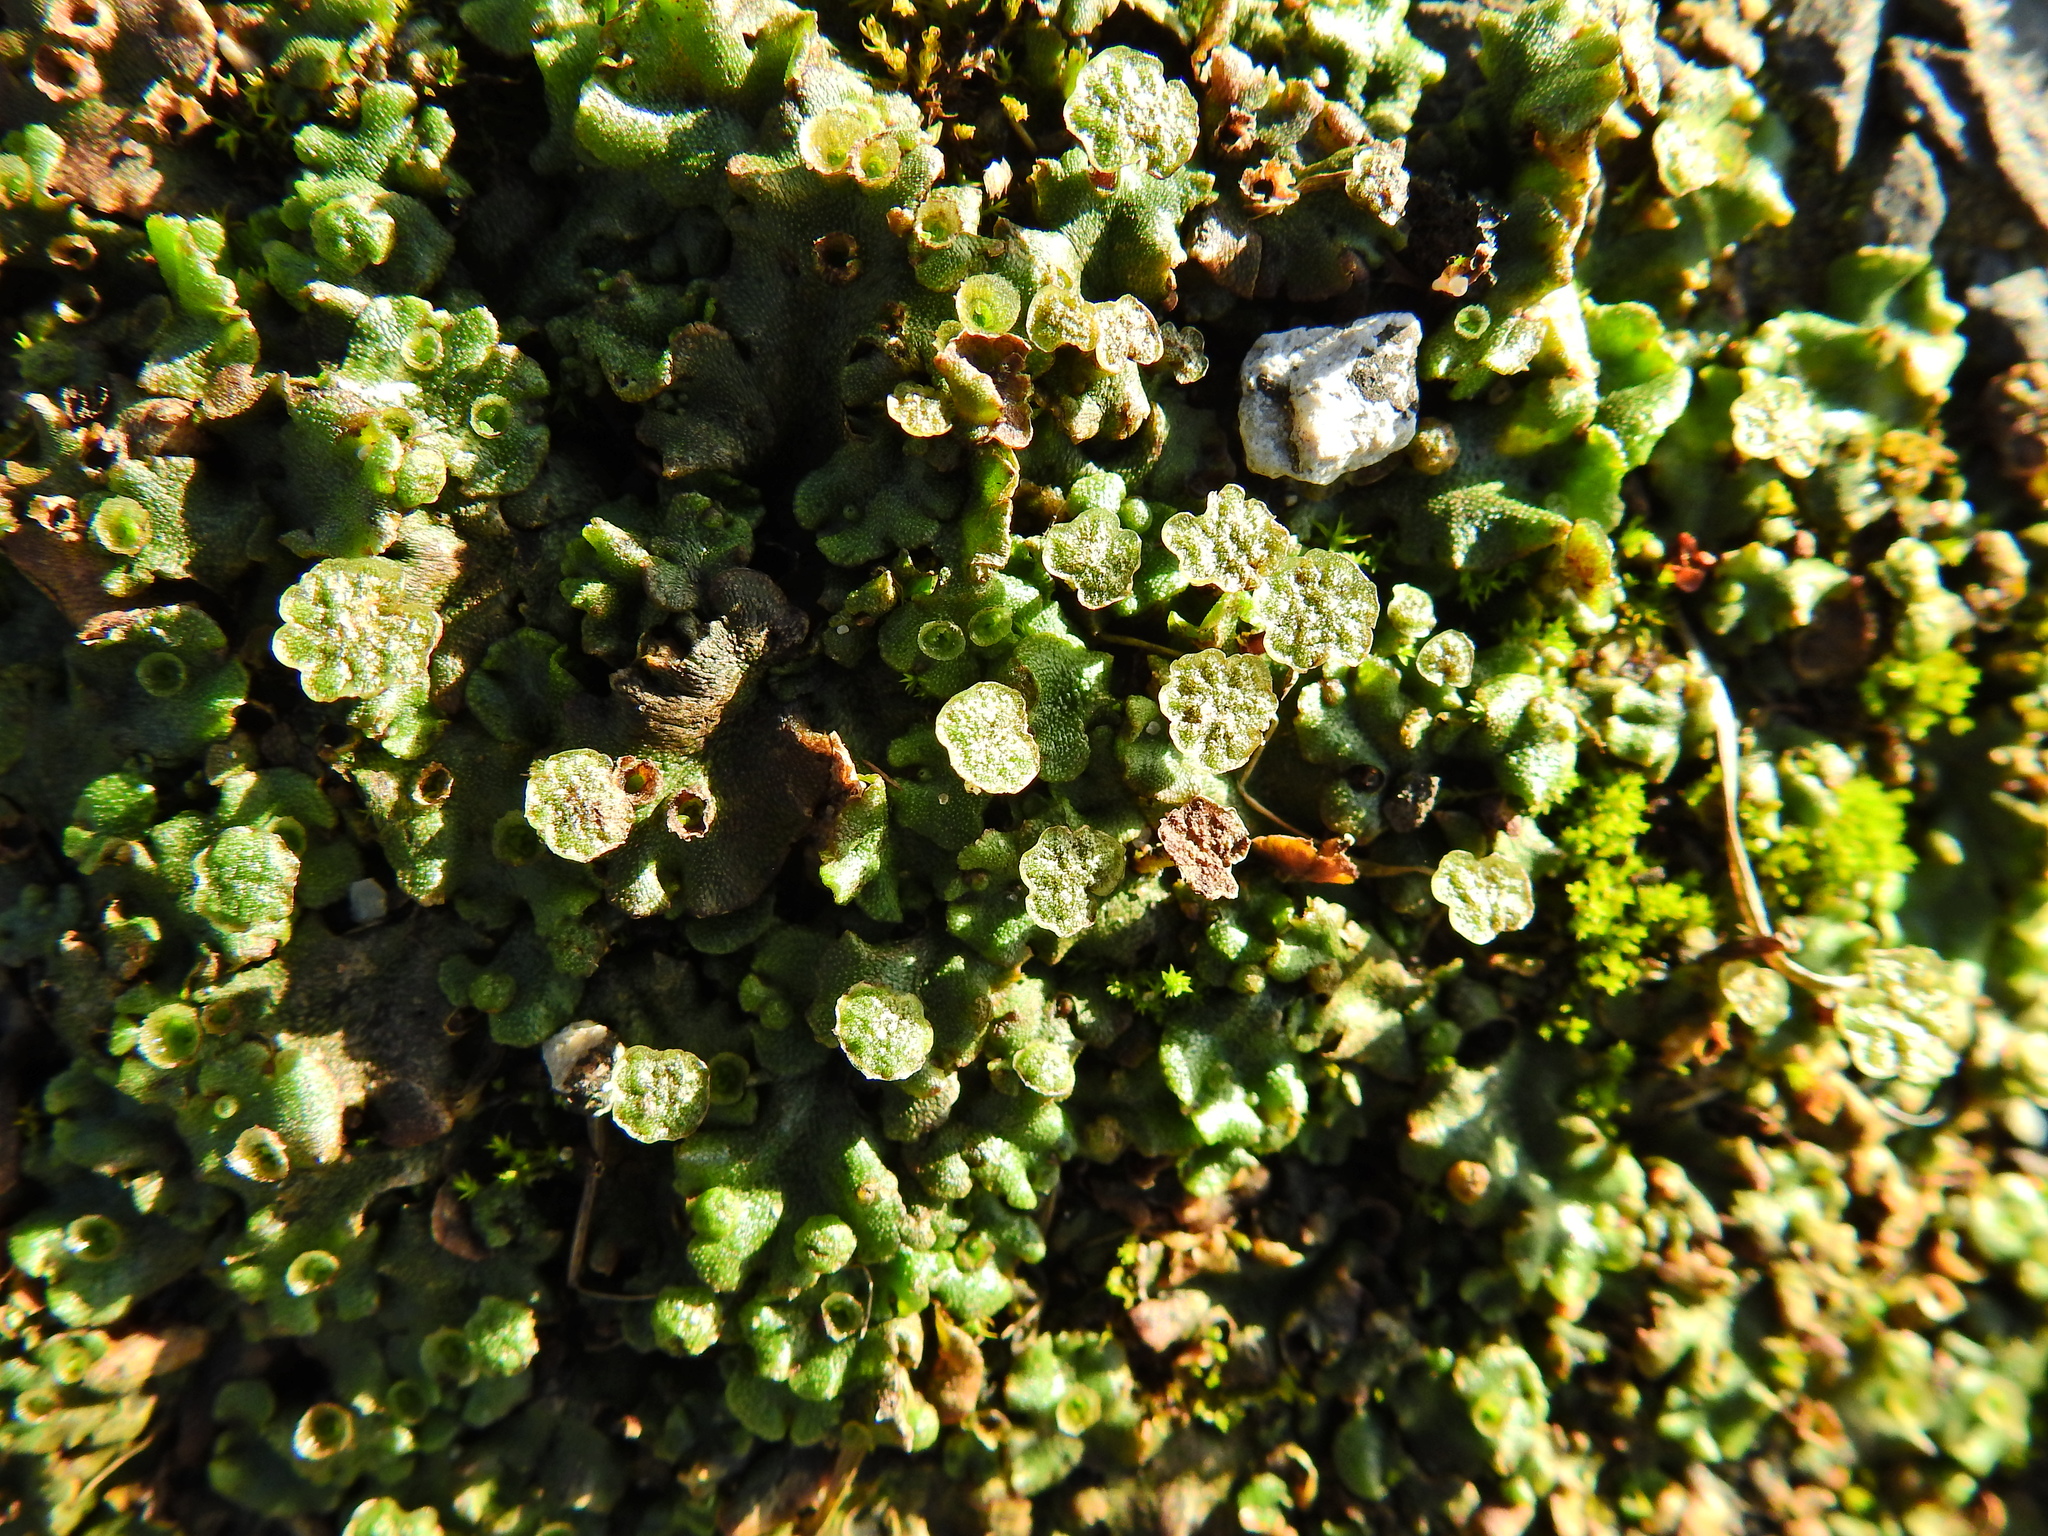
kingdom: Plantae
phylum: Marchantiophyta
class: Marchantiopsida
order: Marchantiales
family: Marchantiaceae
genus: Marchantia
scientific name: Marchantia polymorpha
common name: Common liverwort
